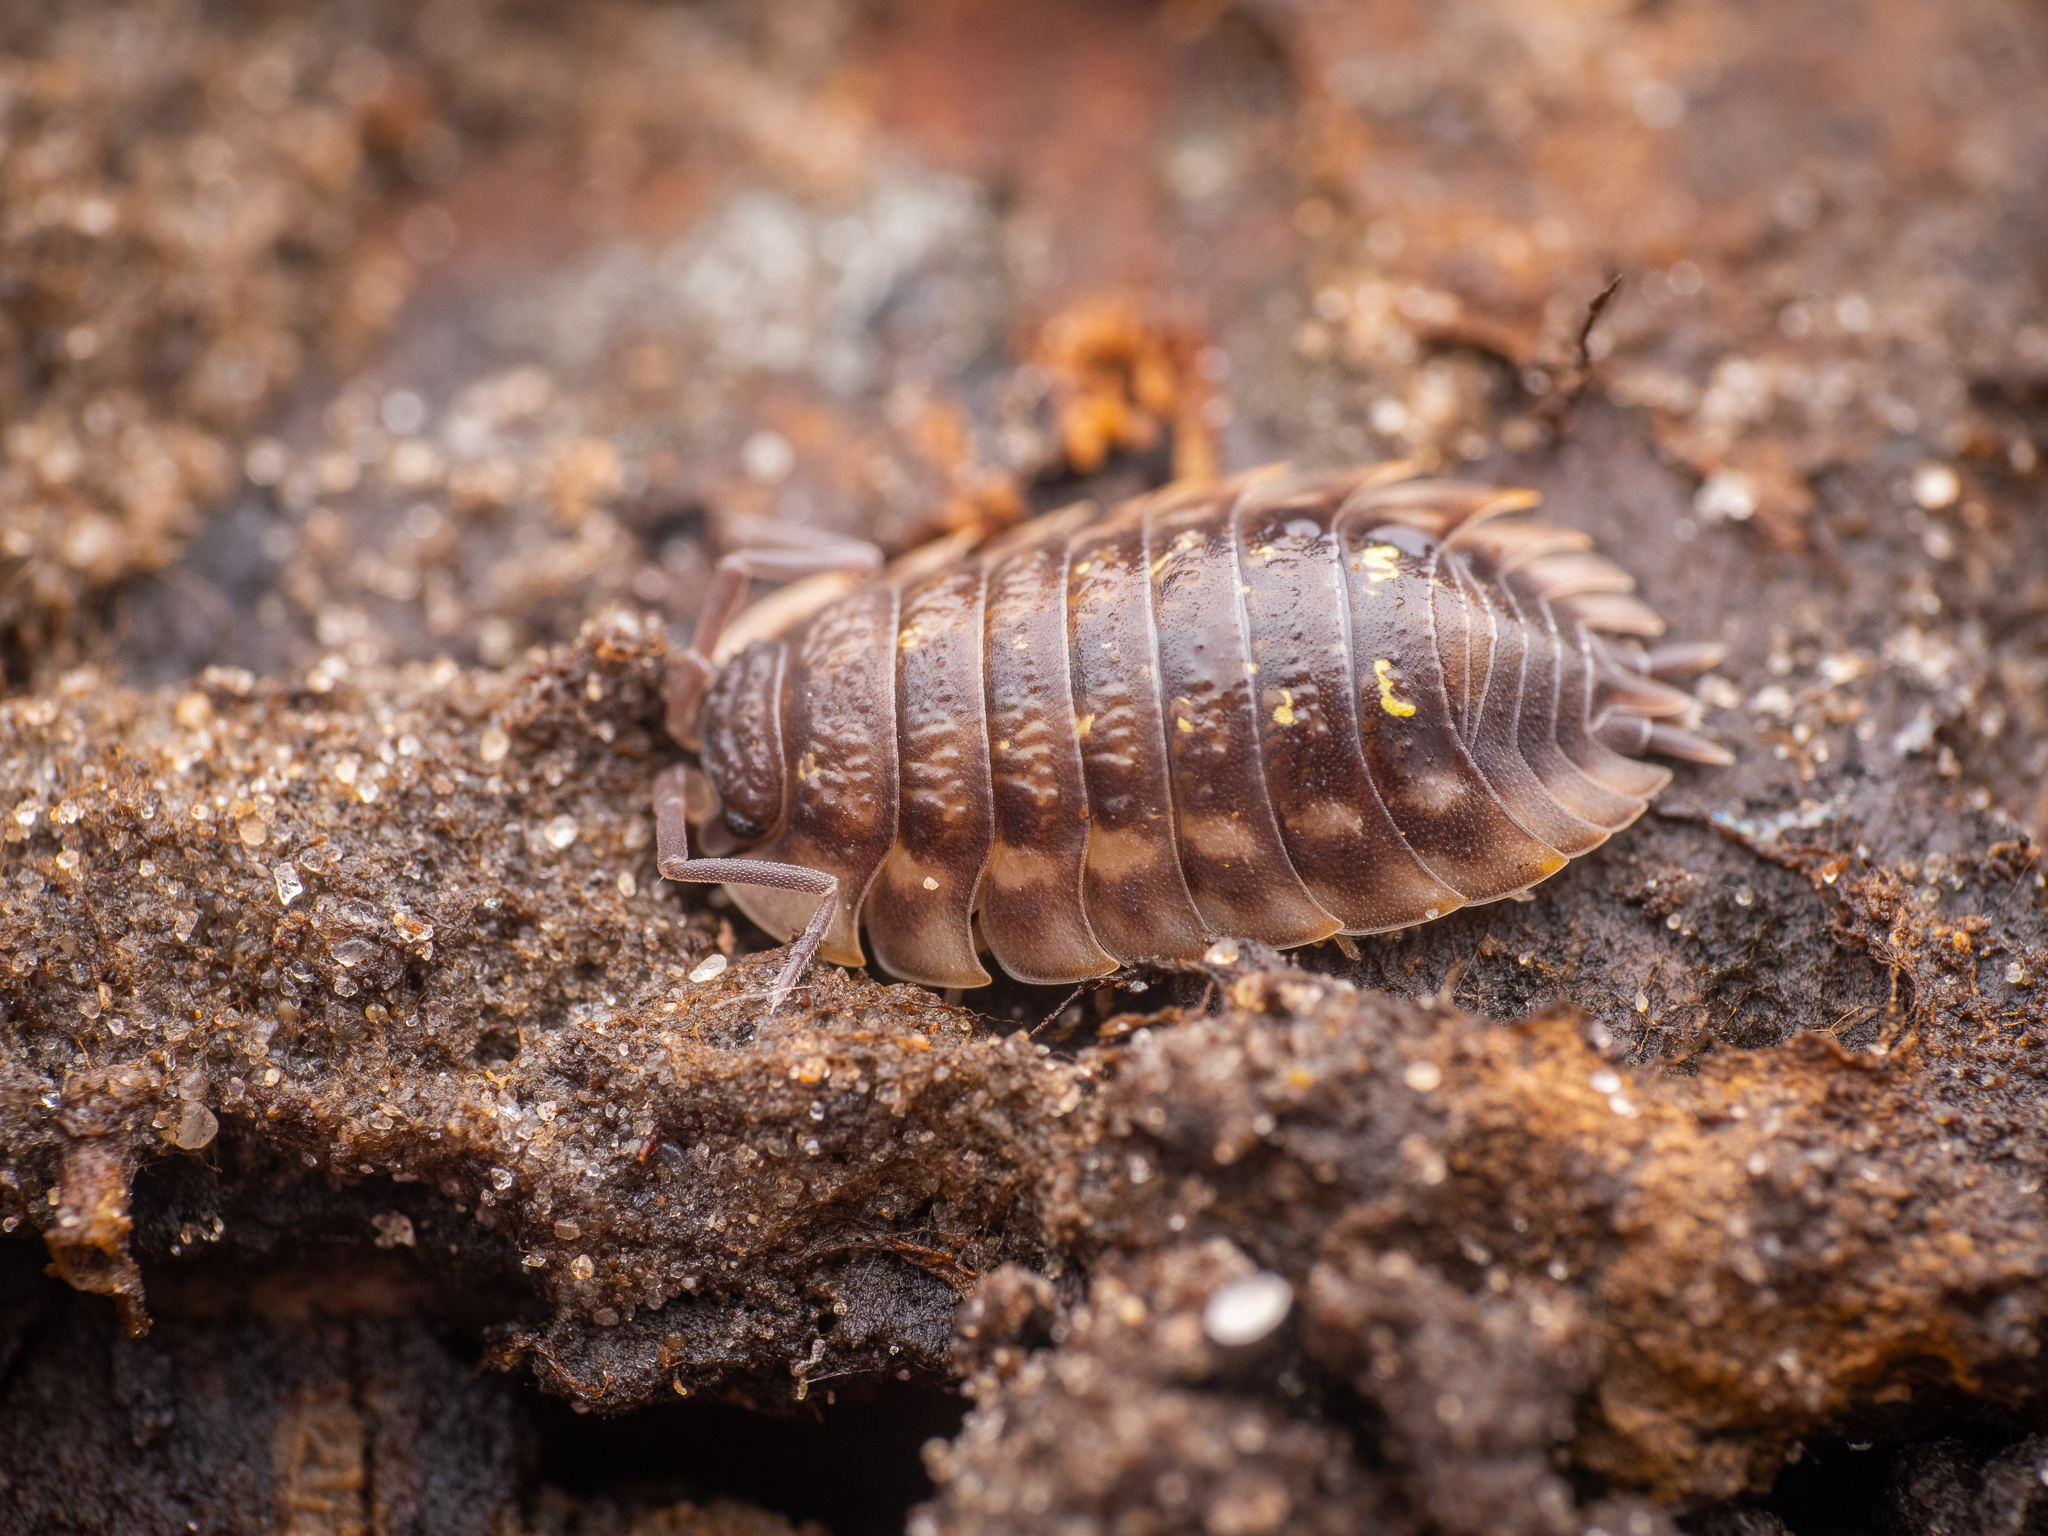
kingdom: Animalia
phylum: Arthropoda
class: Malacostraca
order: Isopoda
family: Oniscidae
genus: Oniscus
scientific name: Oniscus asellus
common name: Common shiny woodlouse
